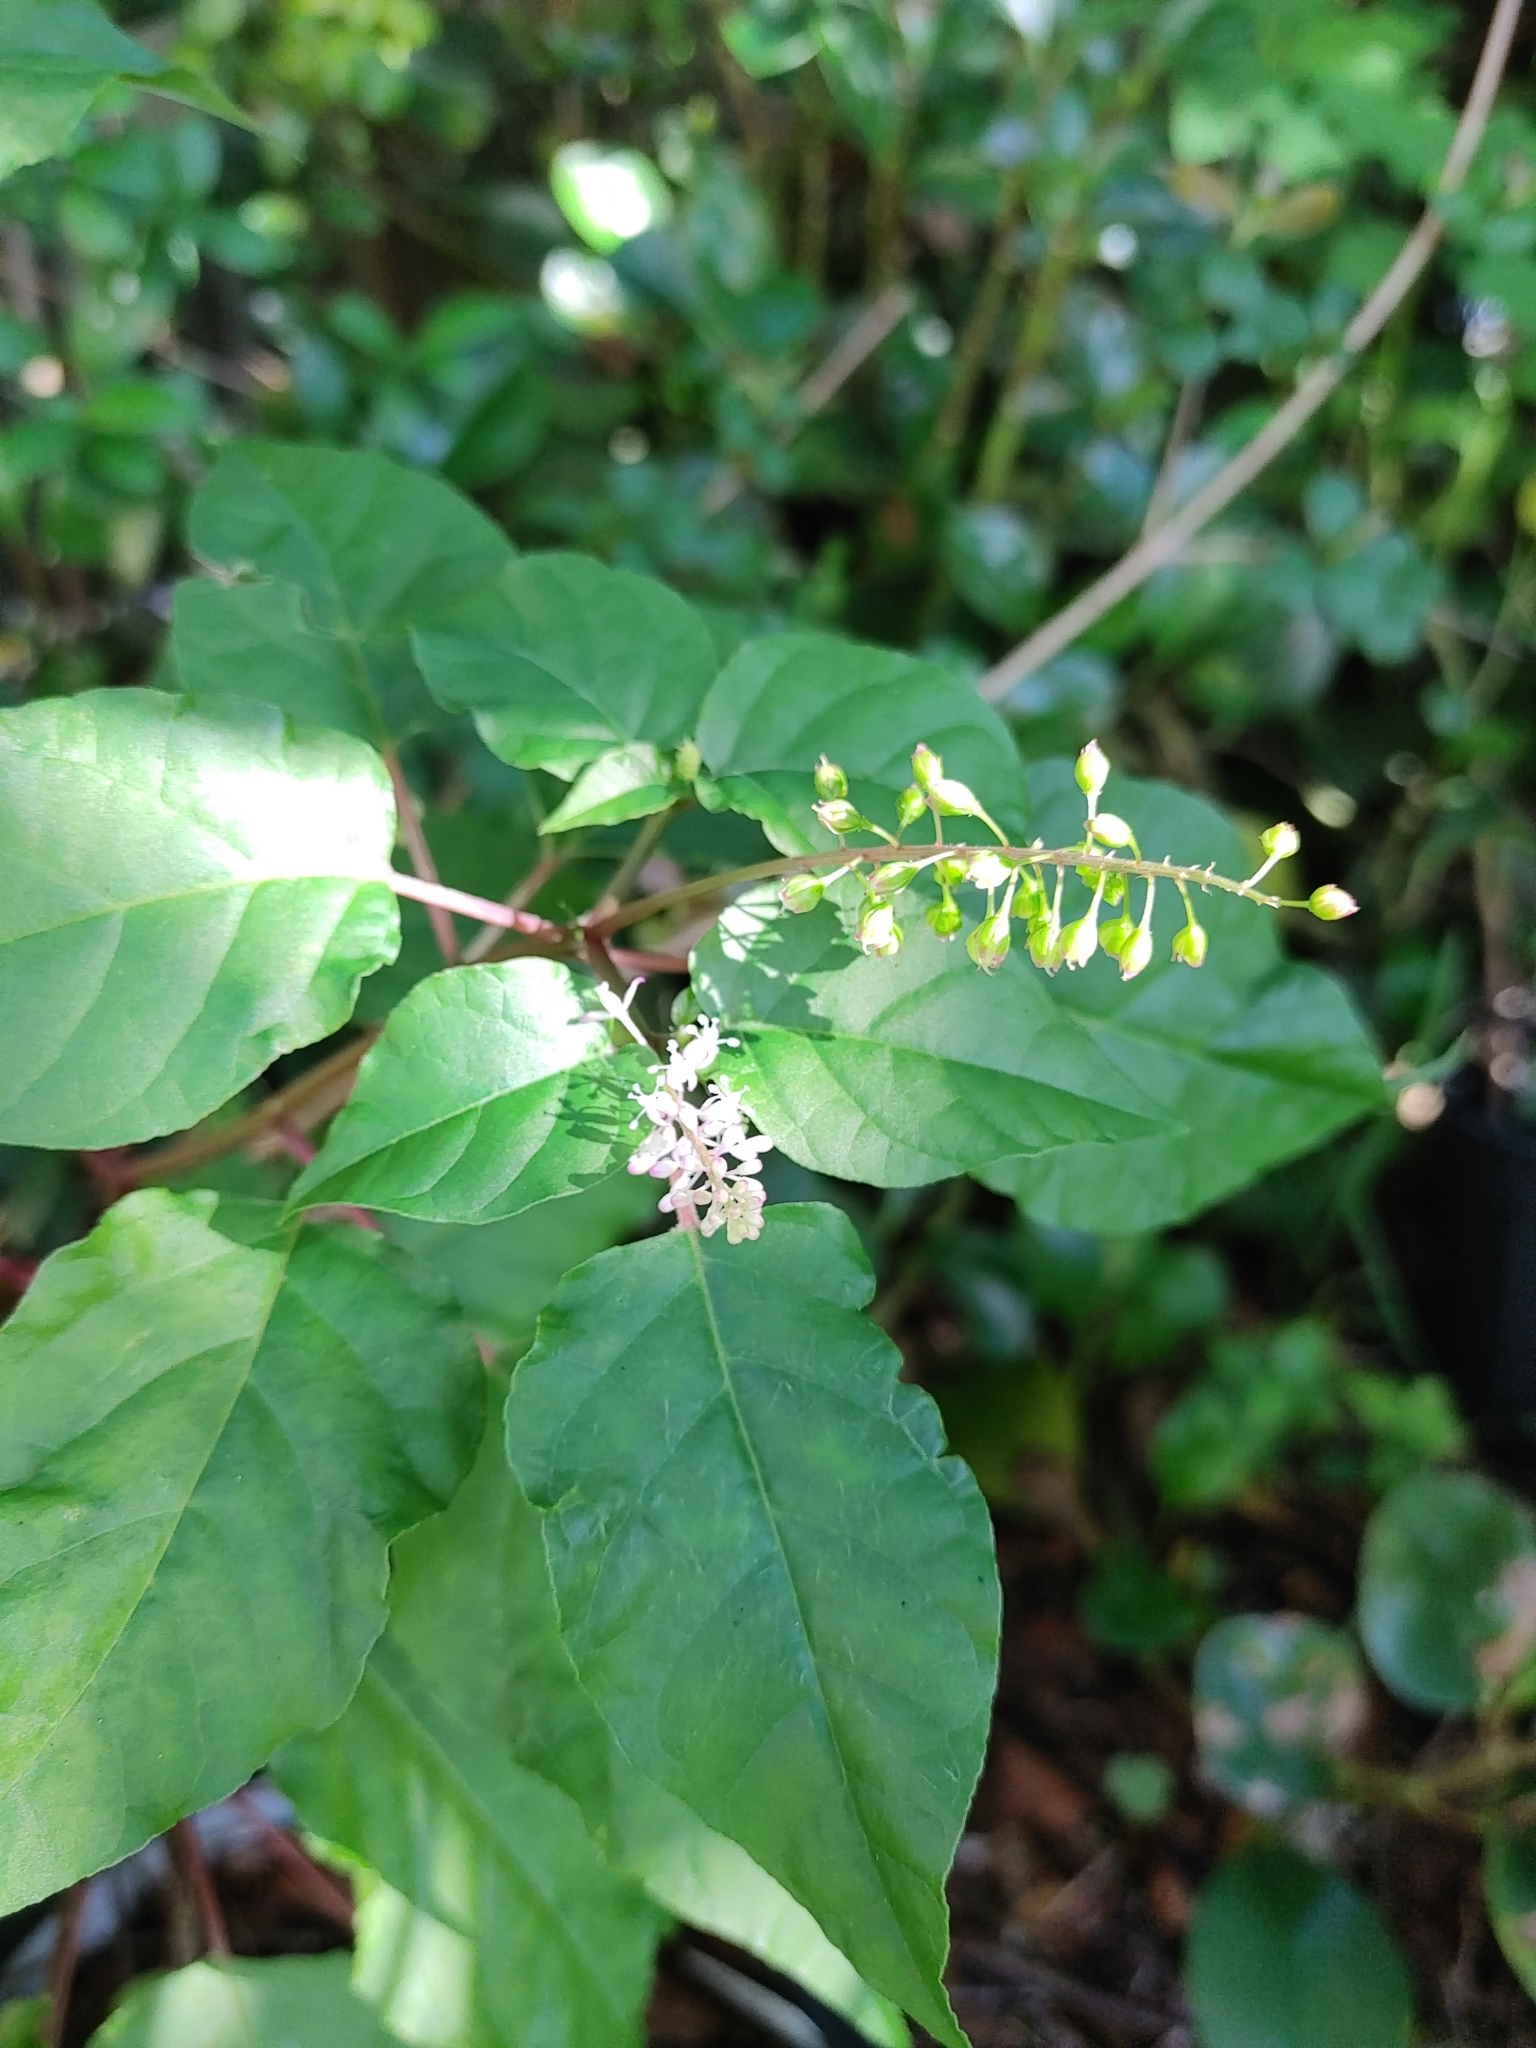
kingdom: Plantae
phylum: Tracheophyta
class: Magnoliopsida
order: Caryophyllales
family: Phytolaccaceae
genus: Rivina
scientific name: Rivina humilis
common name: Rougeplant
